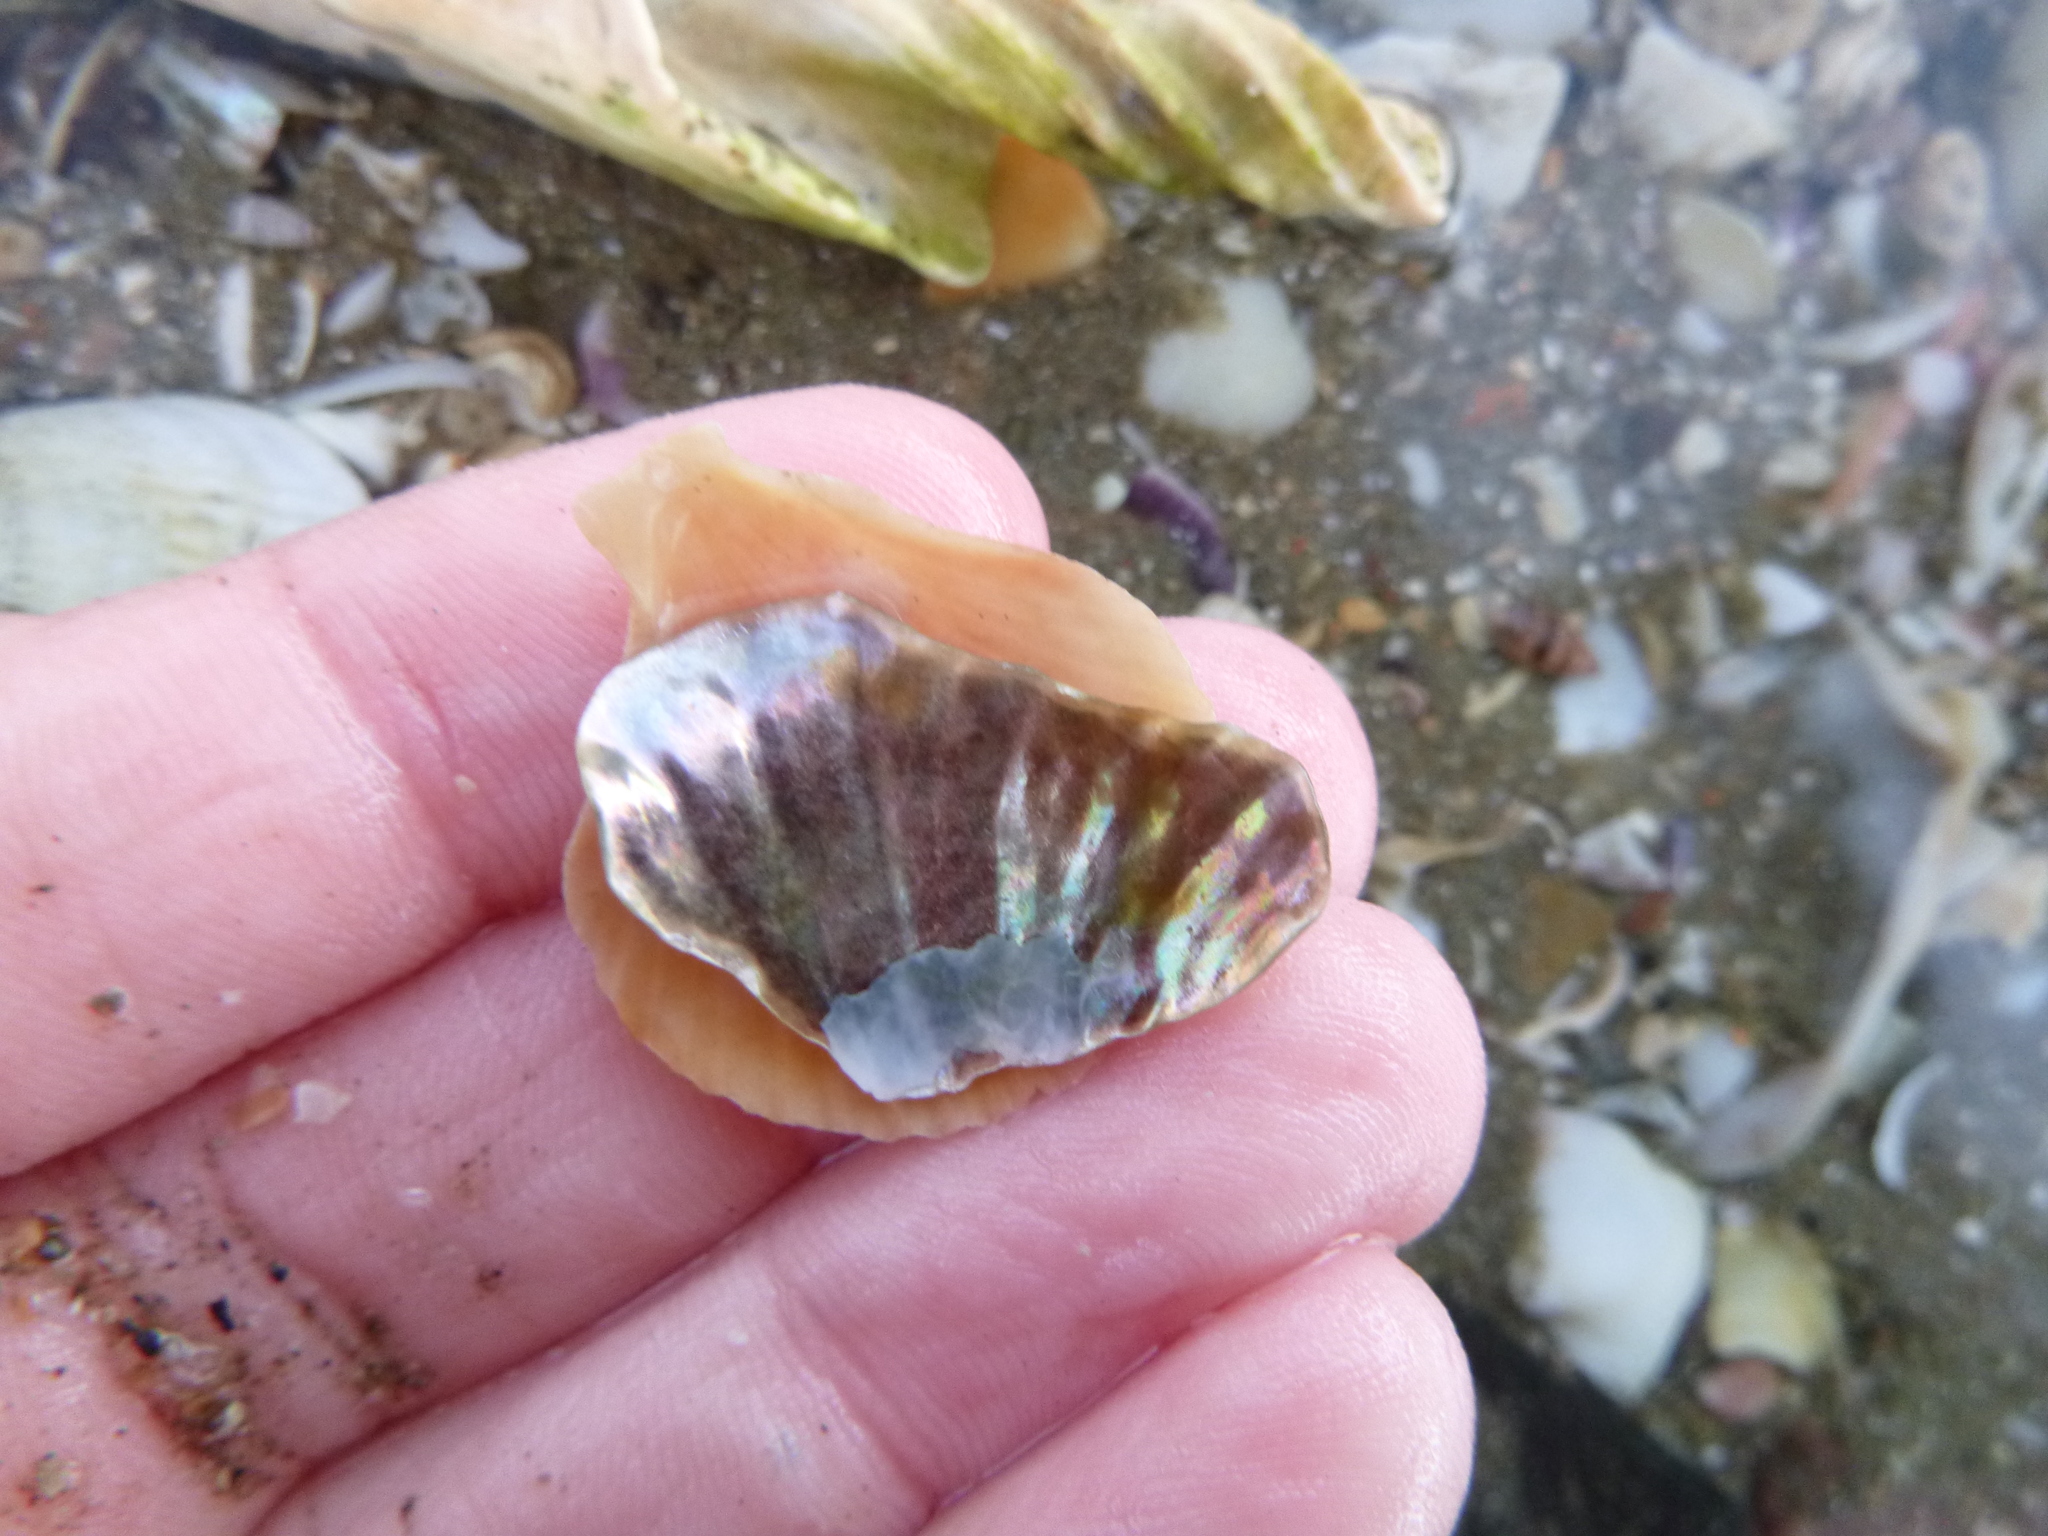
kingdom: Animalia
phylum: Mollusca
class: Bivalvia
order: Pectinida
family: Anomiidae
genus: Anomia
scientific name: Anomia trigonopsis
